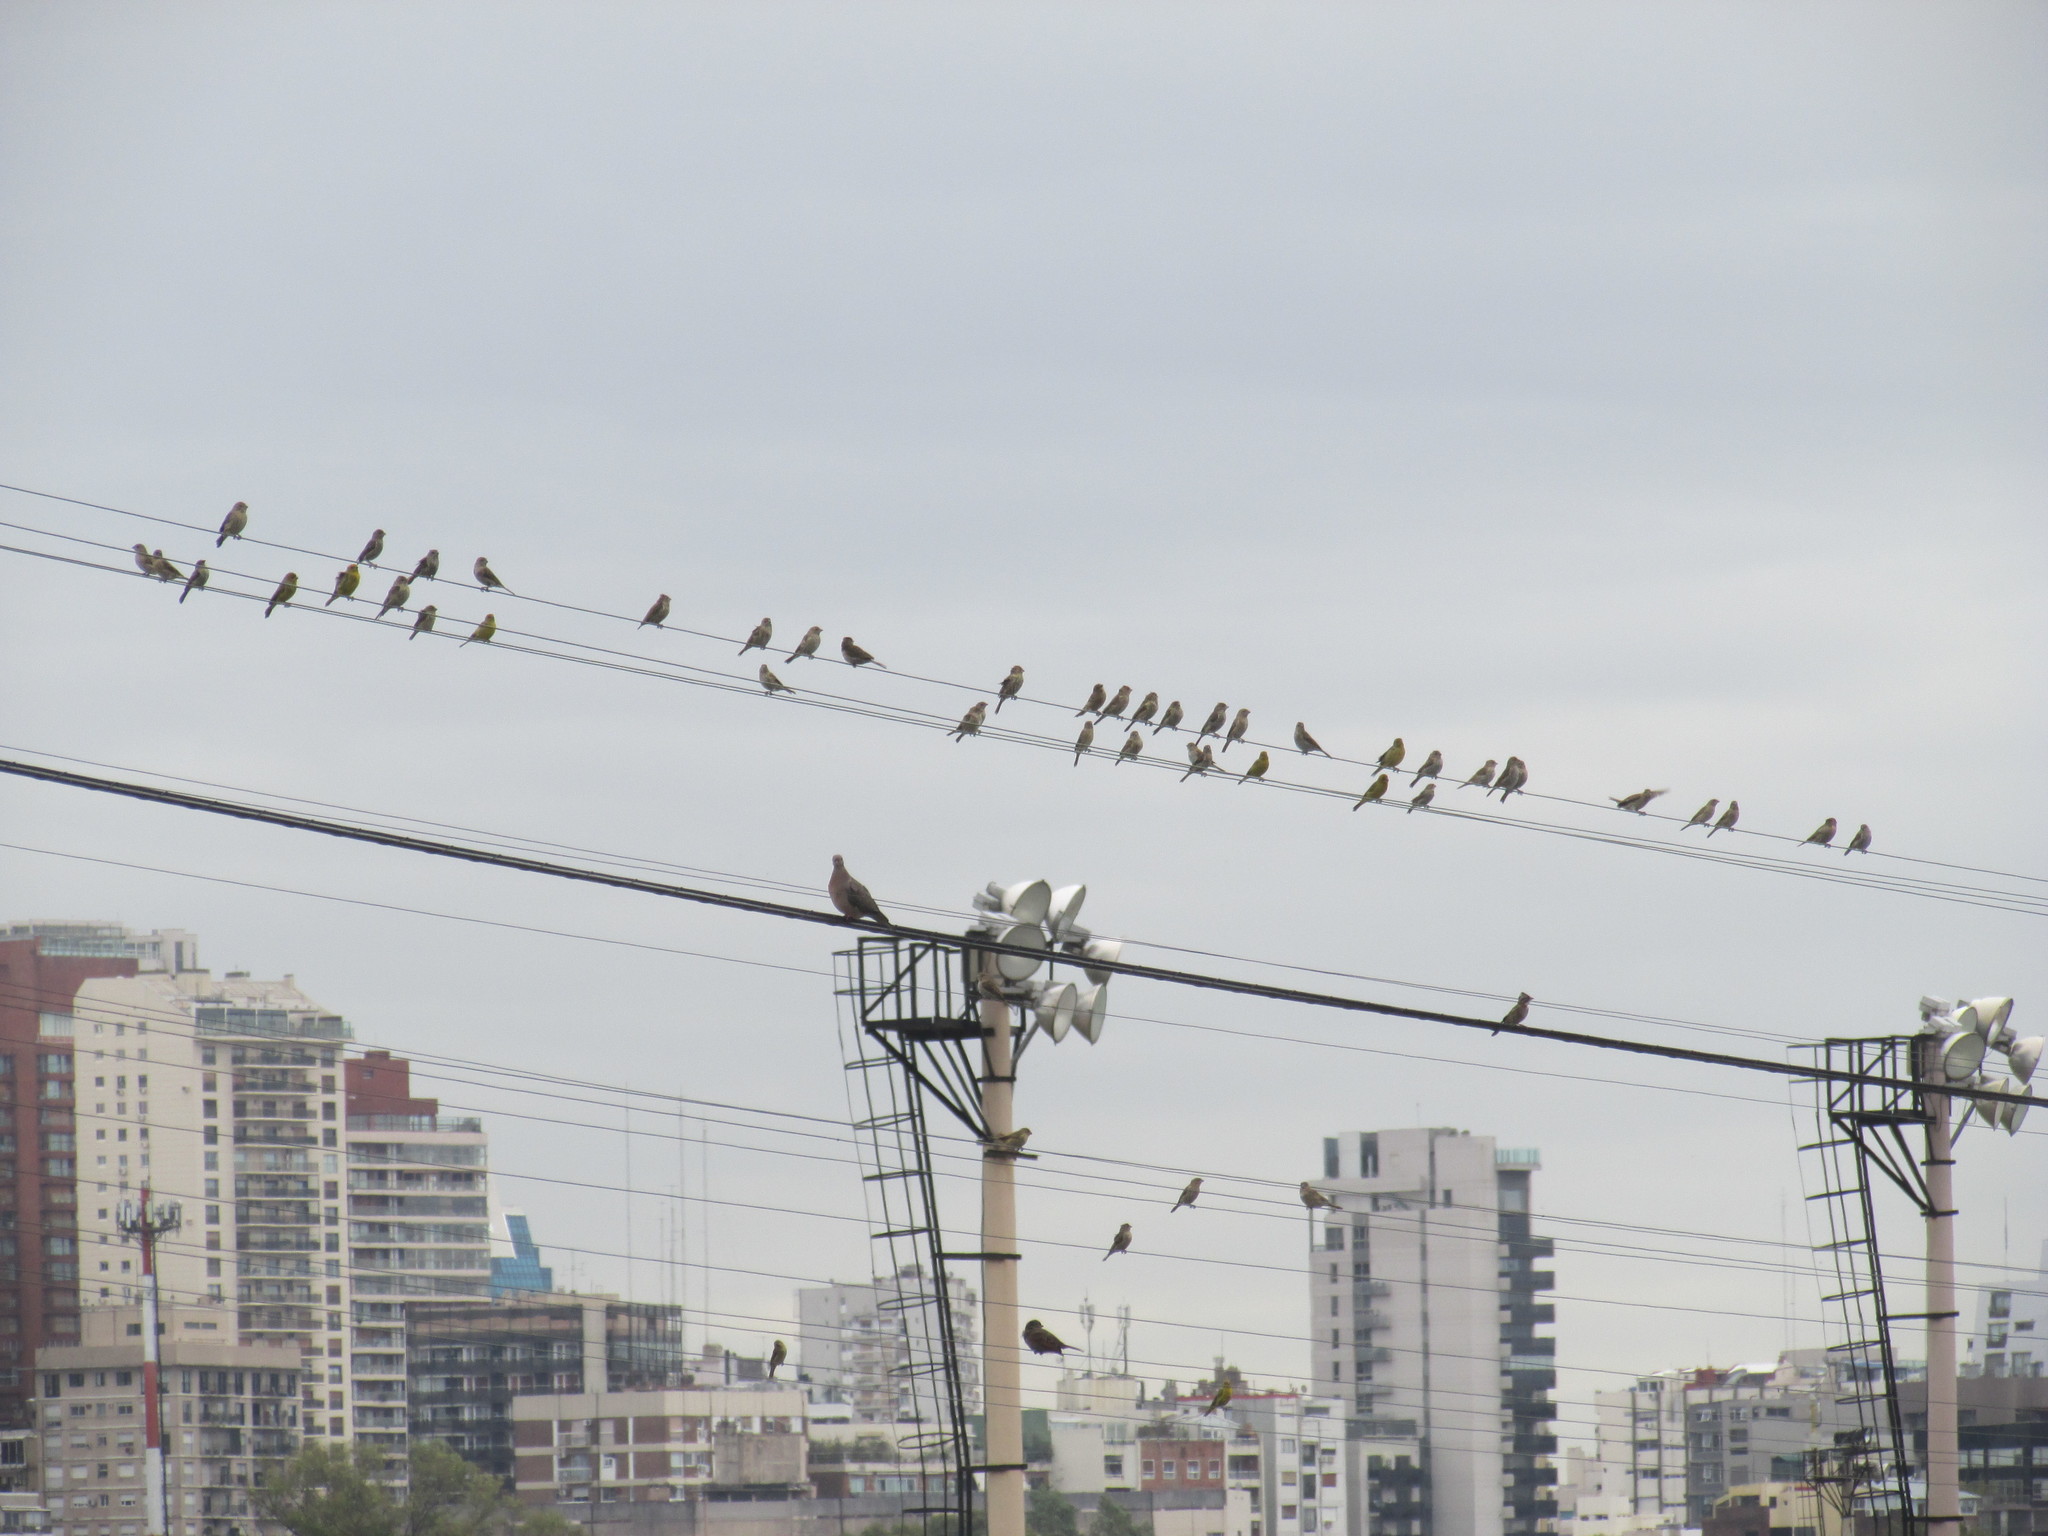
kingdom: Animalia
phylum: Chordata
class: Aves
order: Passeriformes
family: Thraupidae
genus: Sicalis
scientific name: Sicalis flaveola
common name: Saffron finch
